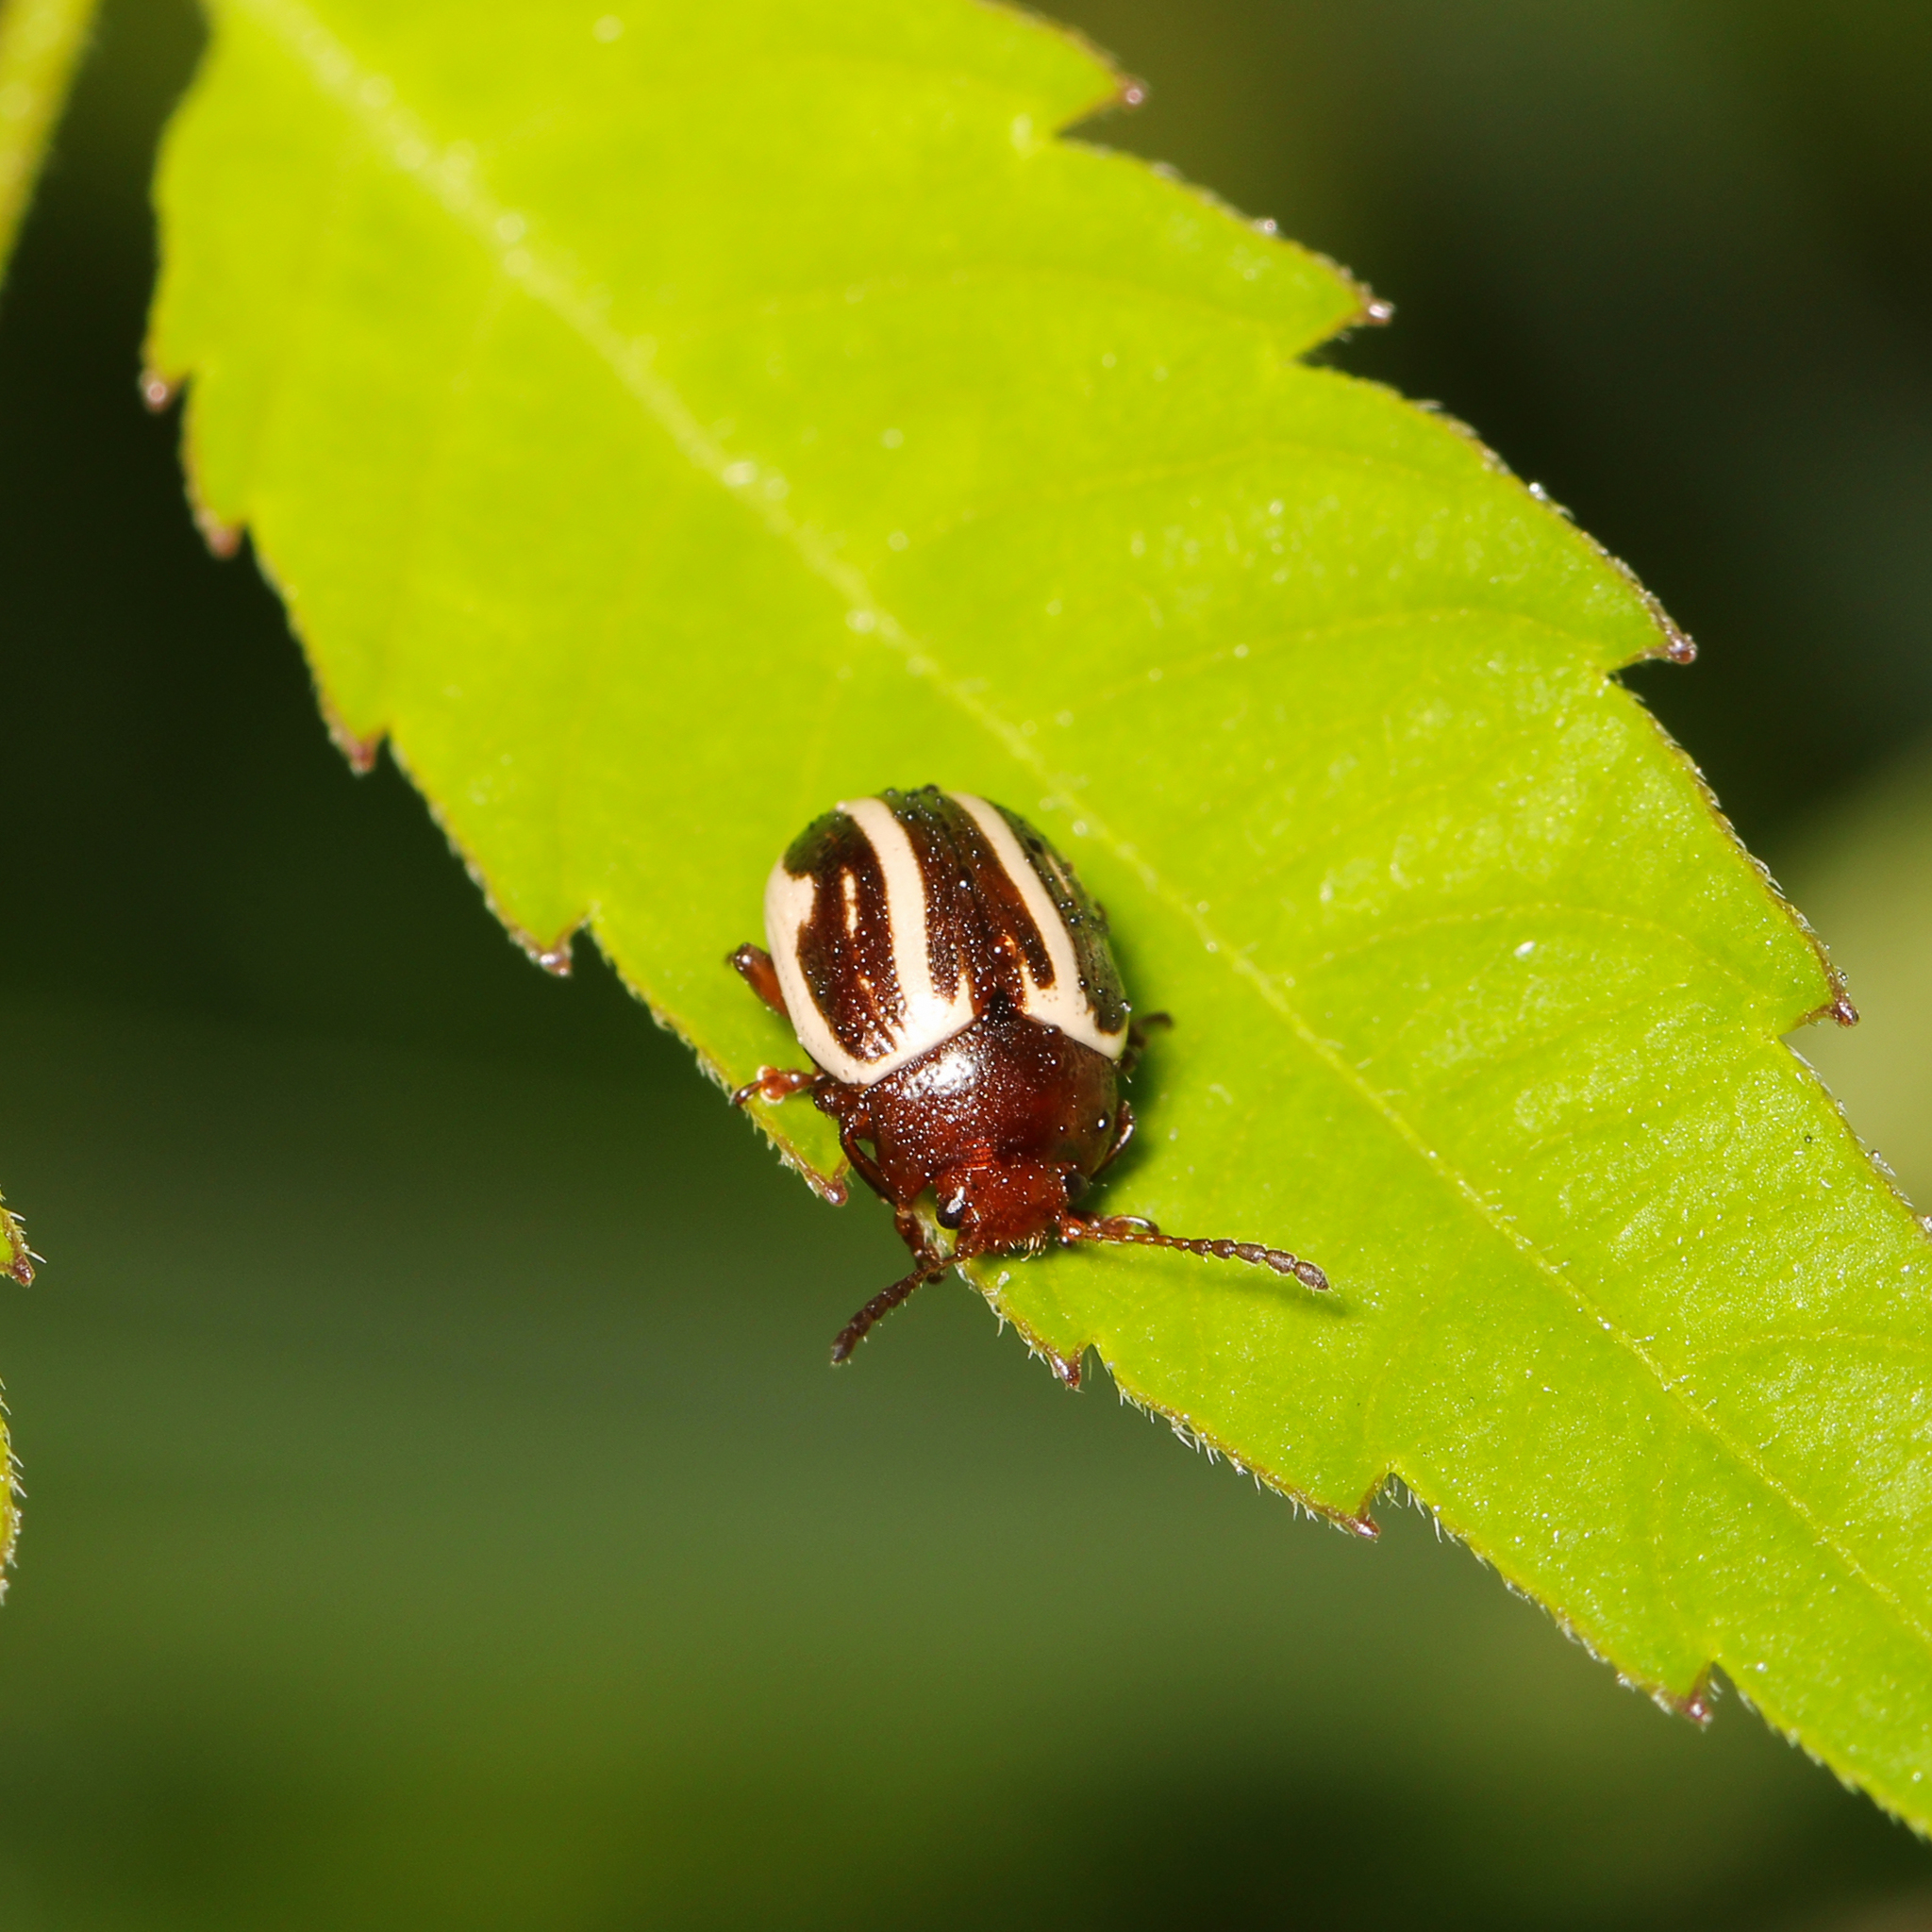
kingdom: Animalia
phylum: Arthropoda
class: Insecta
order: Coleoptera
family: Chrysomelidae
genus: Calligrapha
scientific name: Calligrapha bidenticola
